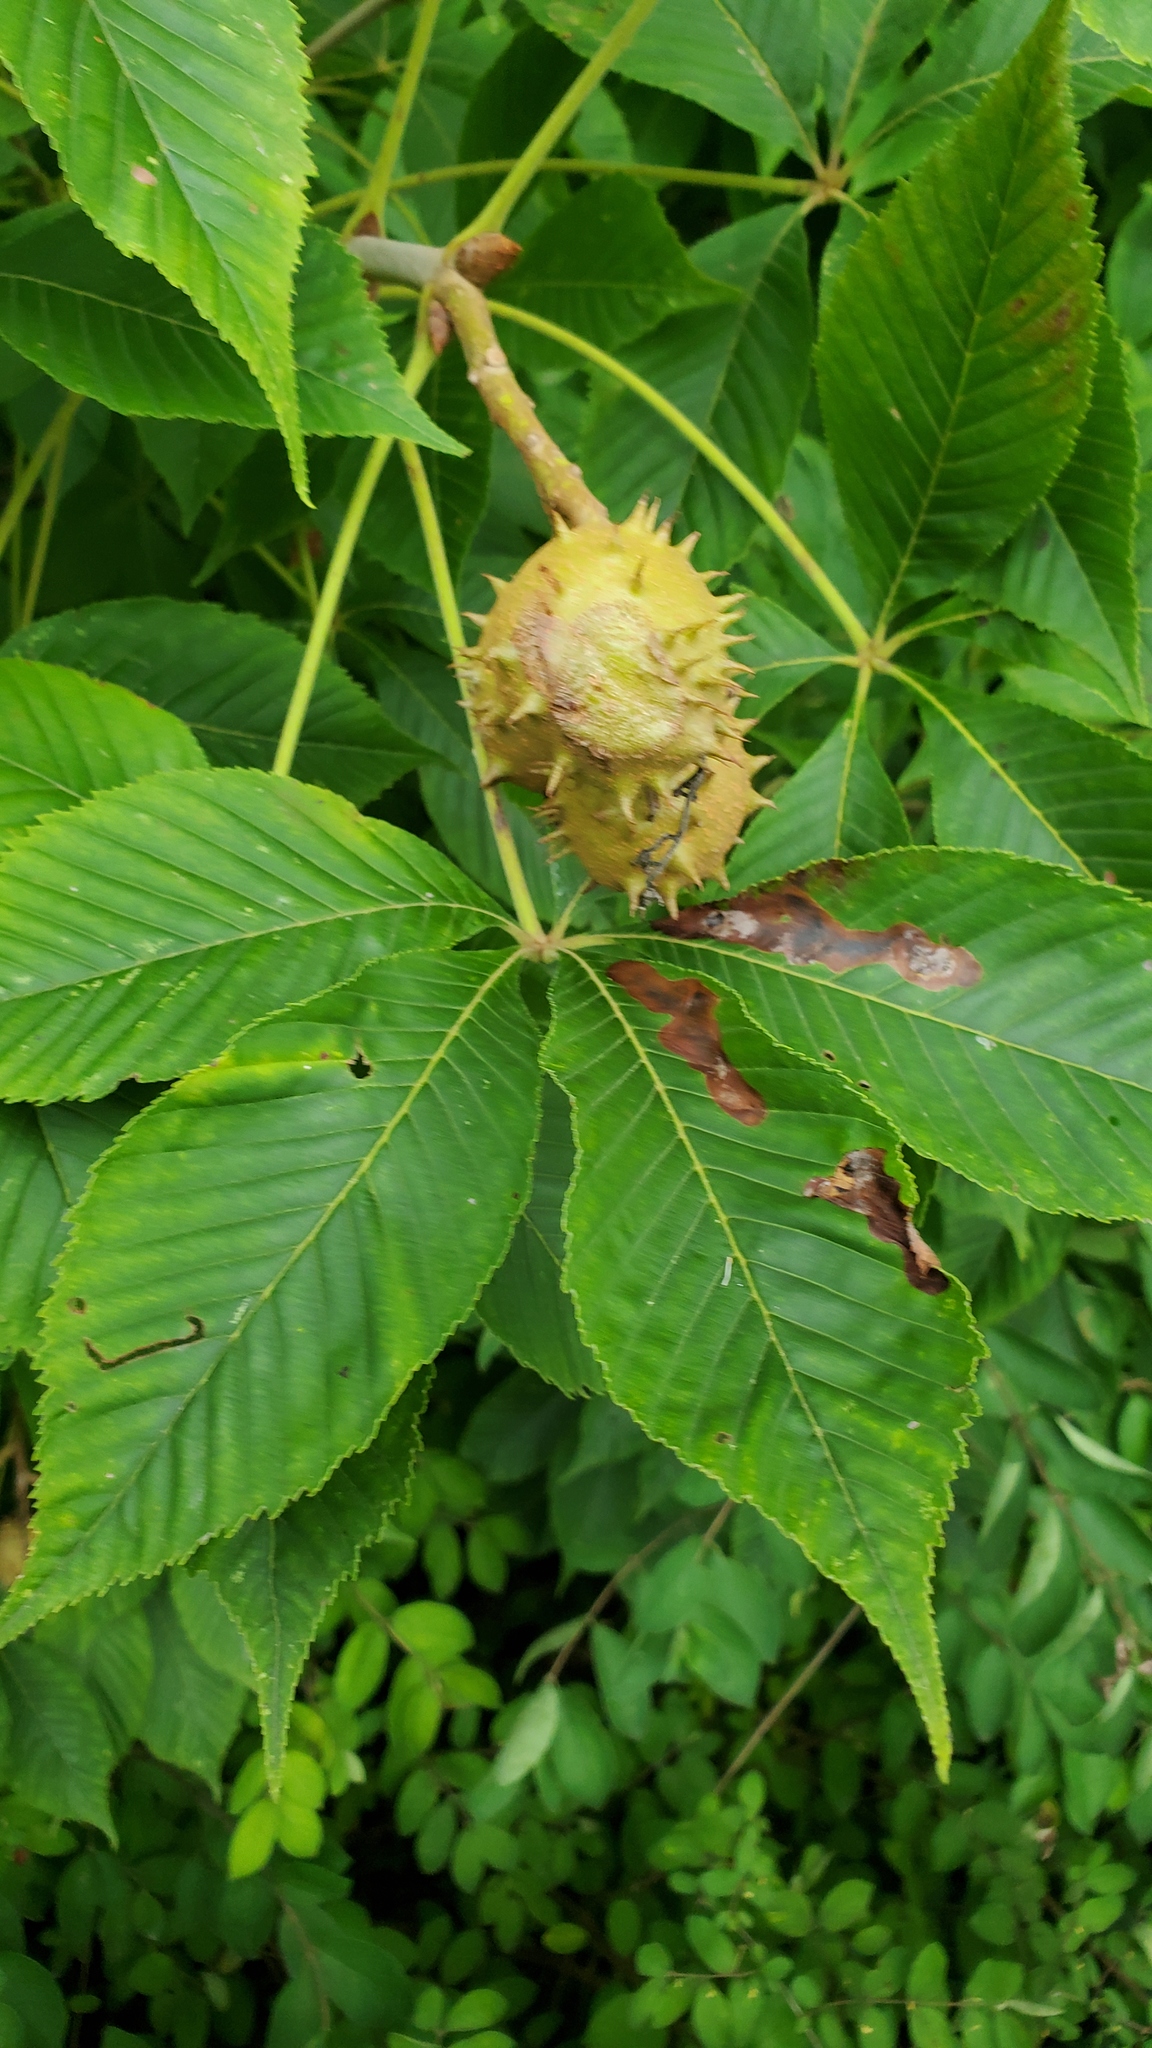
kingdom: Plantae
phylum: Tracheophyta
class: Magnoliopsida
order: Sapindales
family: Sapindaceae
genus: Aesculus
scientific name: Aesculus glabra
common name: Ohio buckeye
